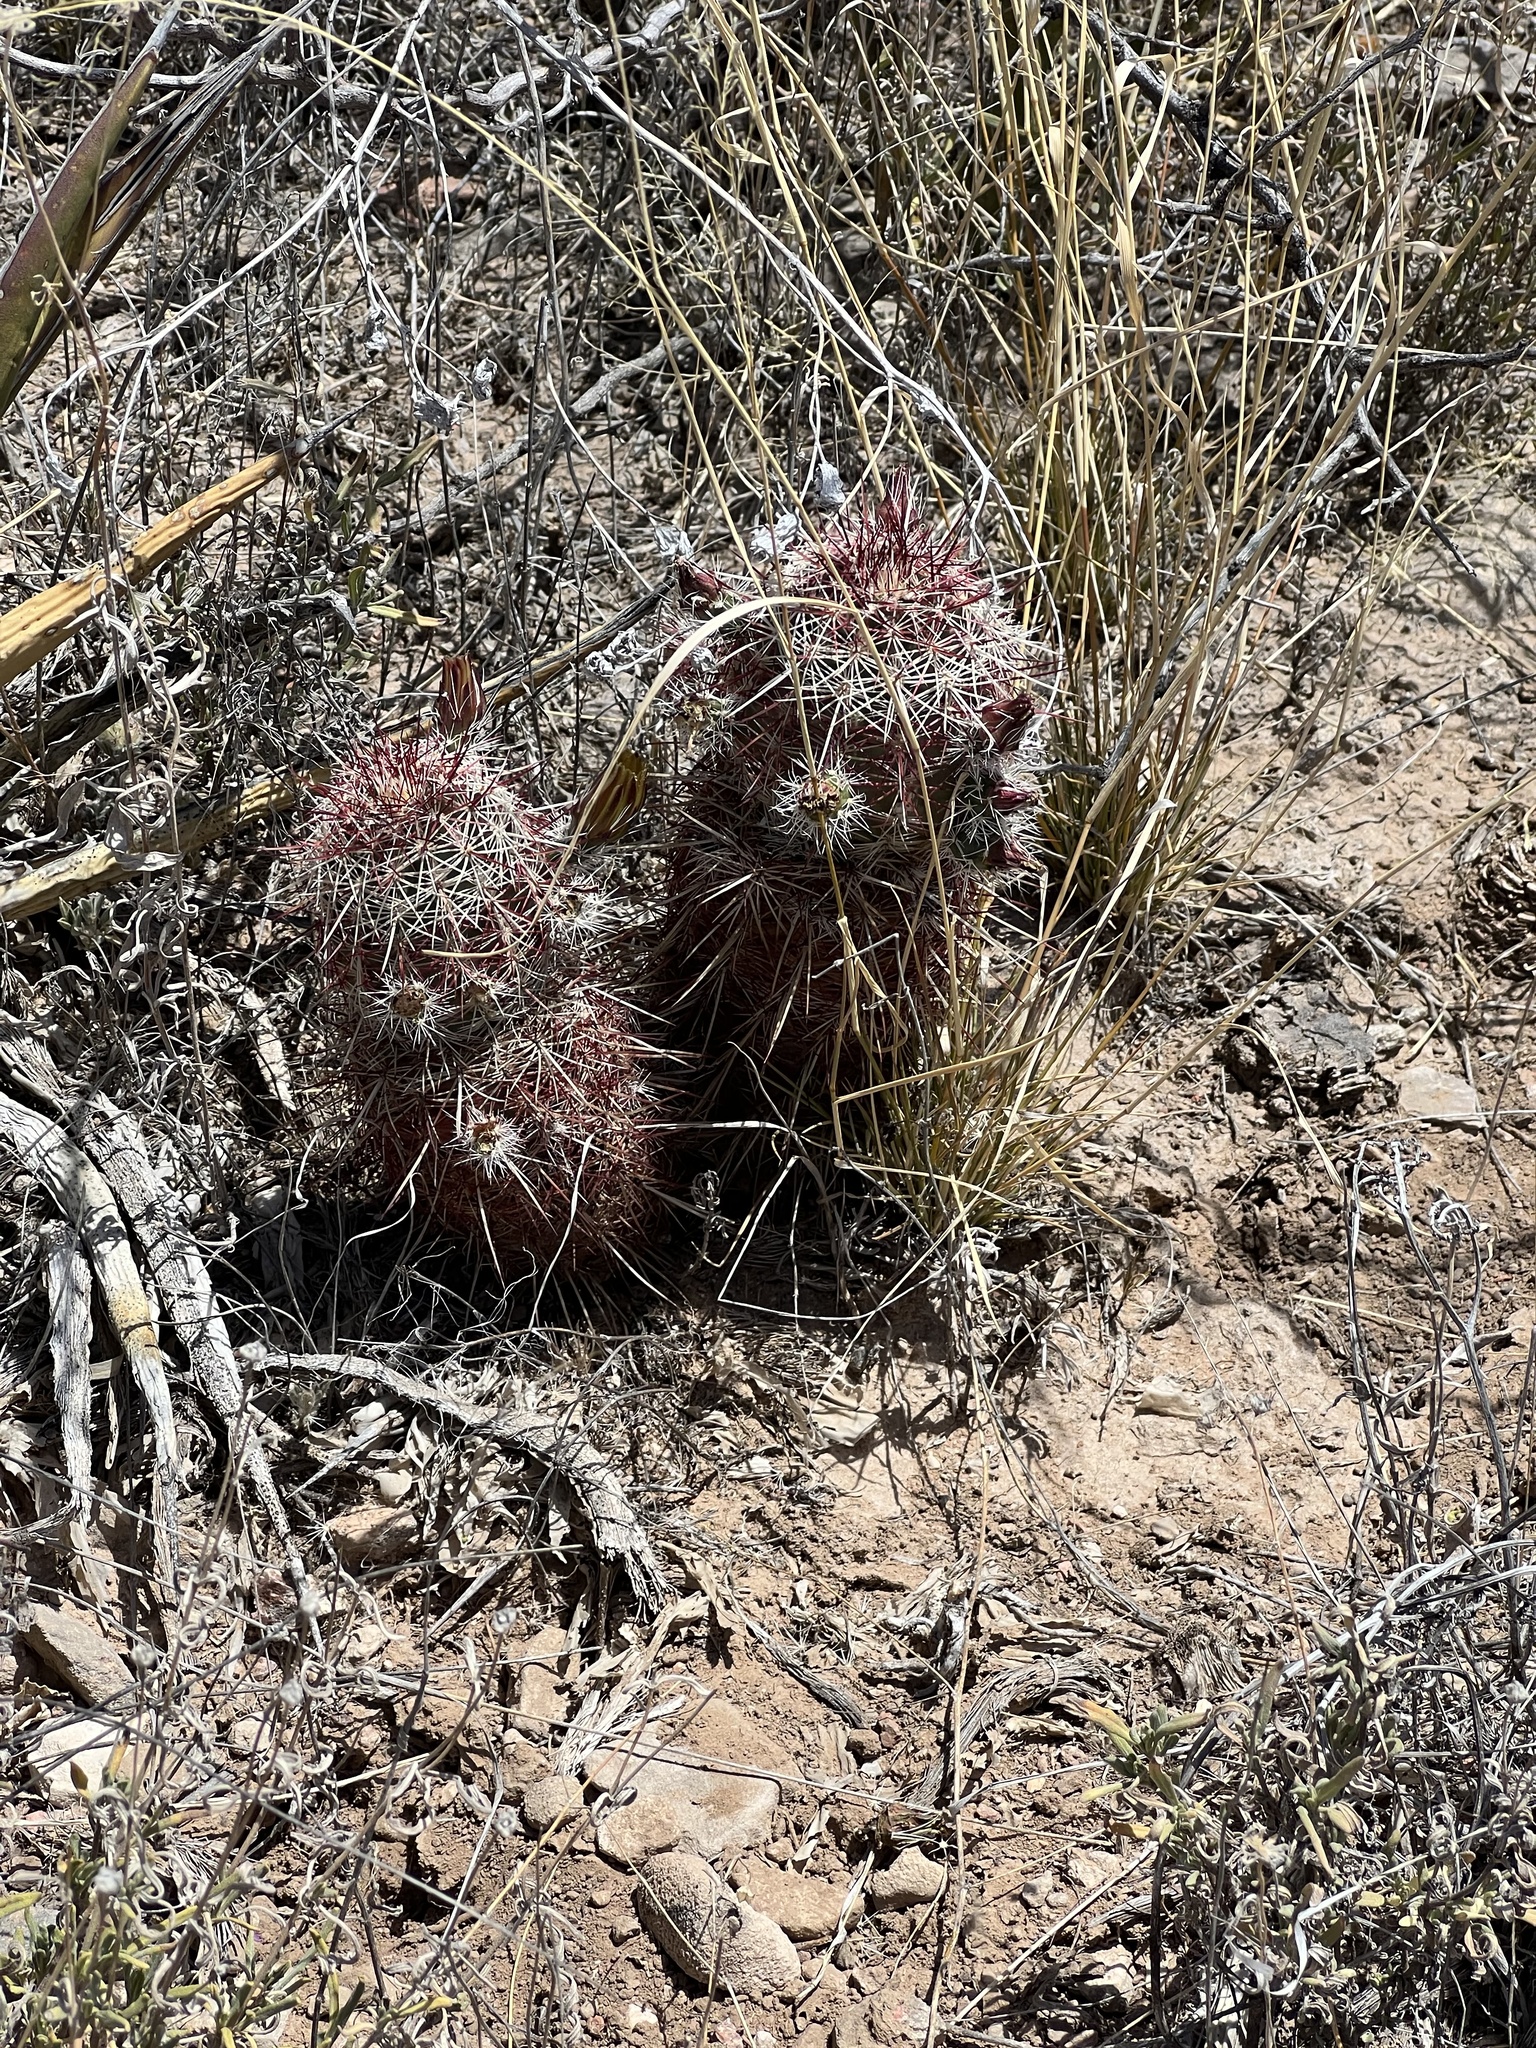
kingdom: Plantae
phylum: Tracheophyta
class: Magnoliopsida
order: Caryophyllales
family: Cactaceae
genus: Echinocereus
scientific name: Echinocereus viridiflorus
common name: Nylon hedgehog cactus
